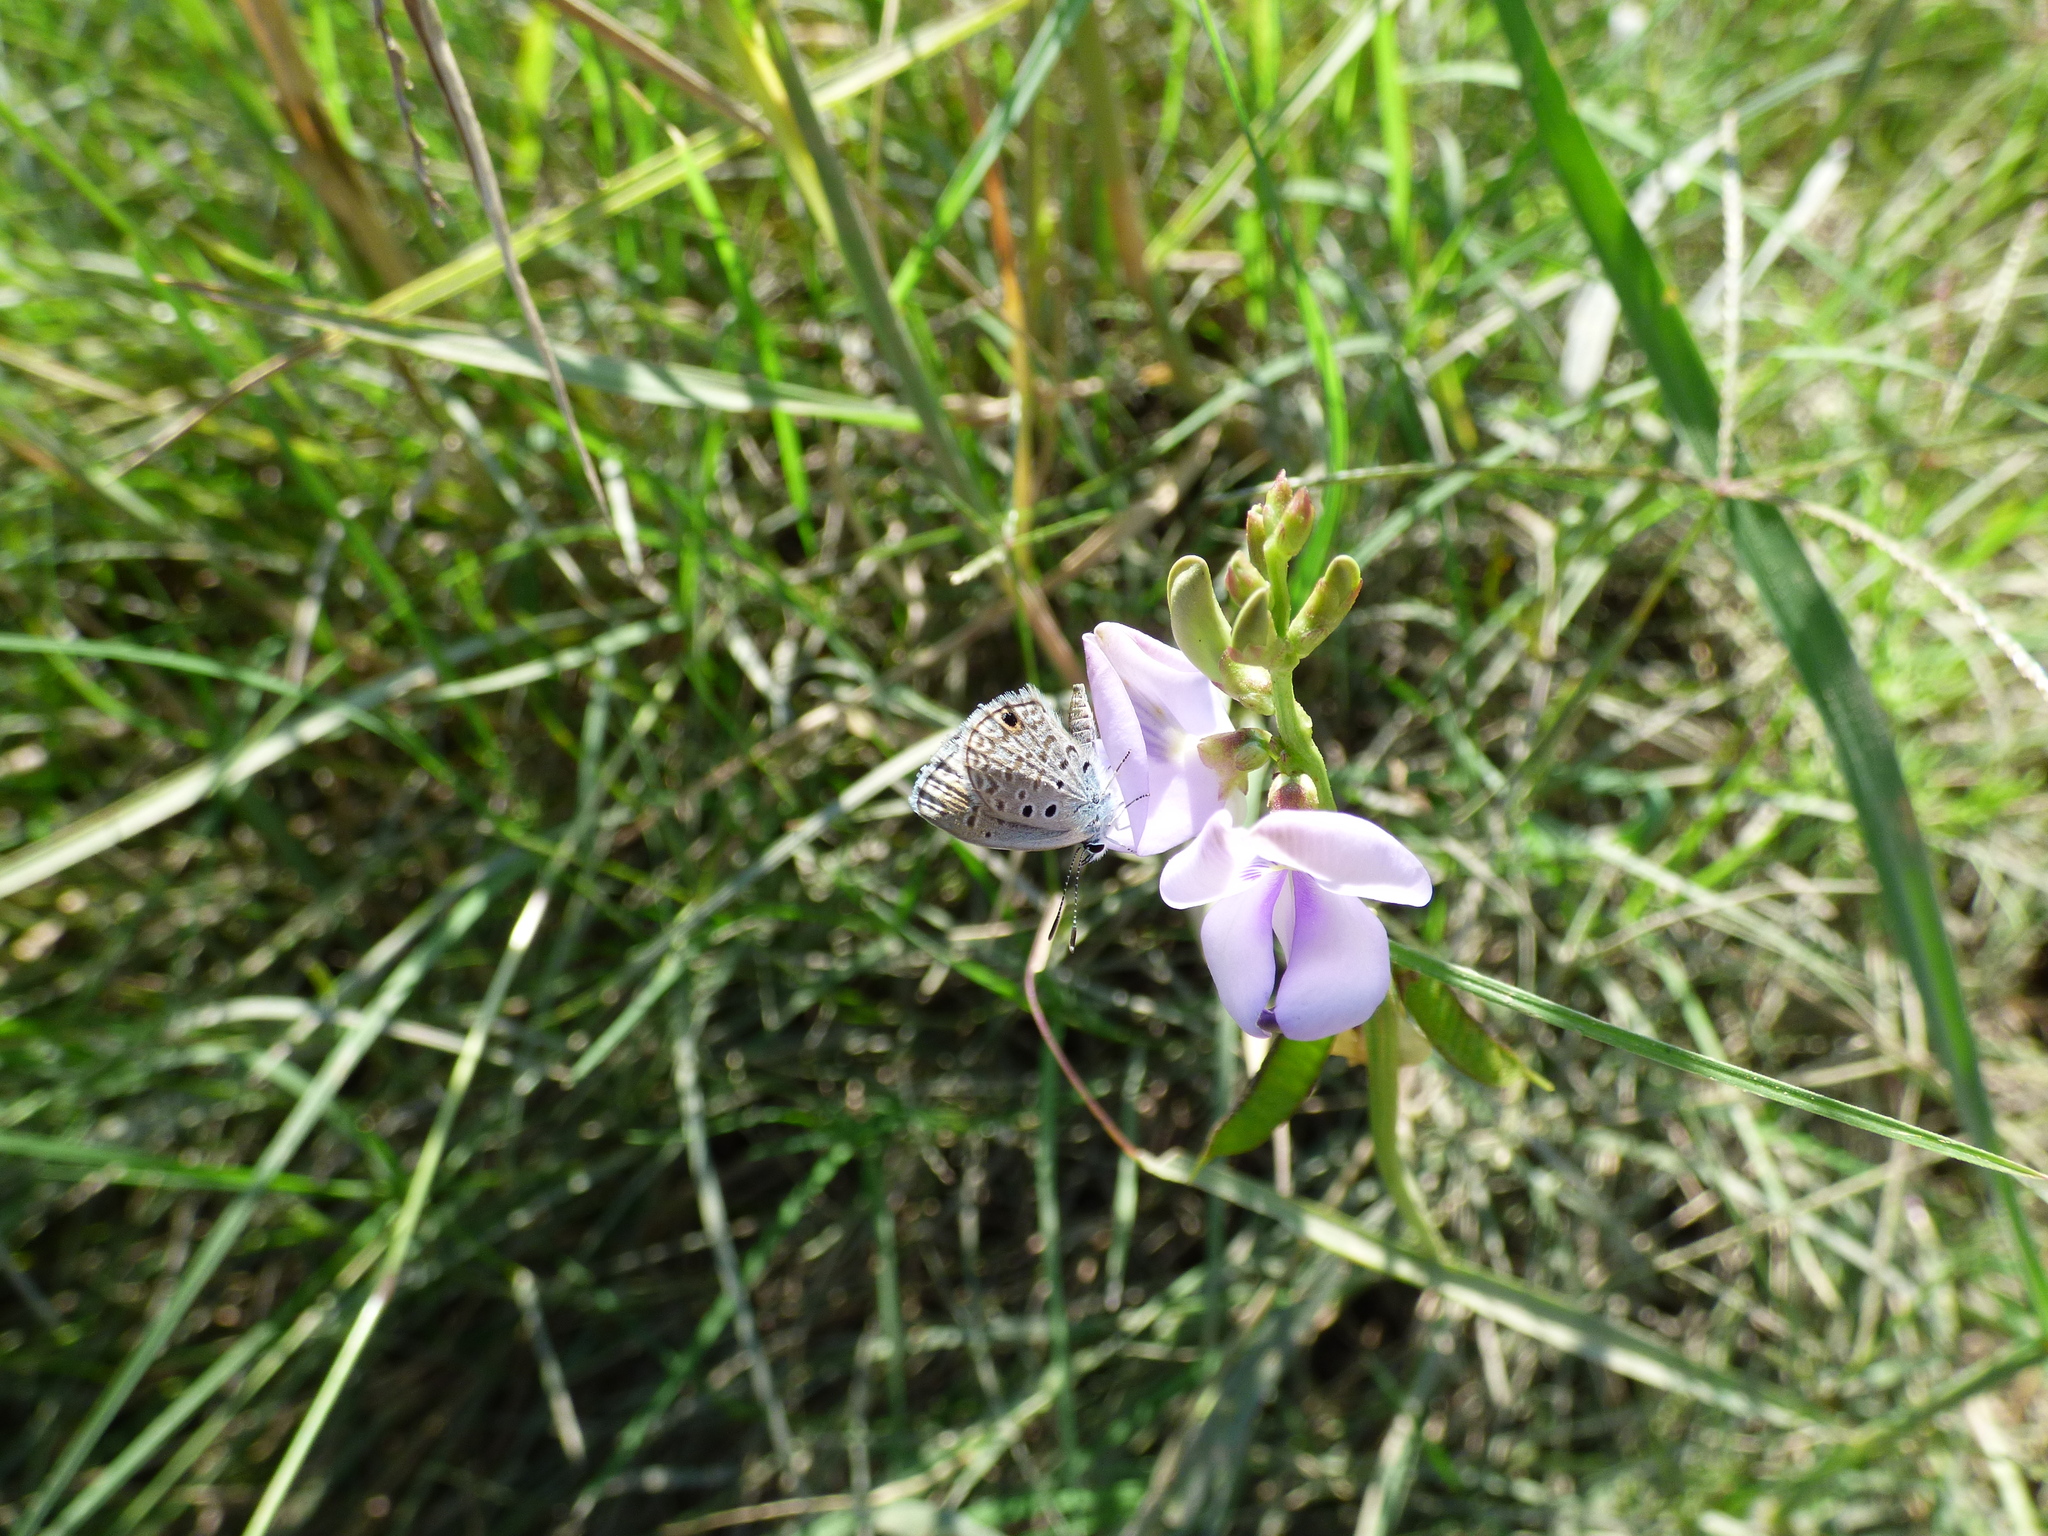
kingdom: Animalia
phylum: Arthropoda
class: Insecta
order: Lepidoptera
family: Lycaenidae
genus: Hemiargus
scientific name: Hemiargus hanno
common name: Common blue
